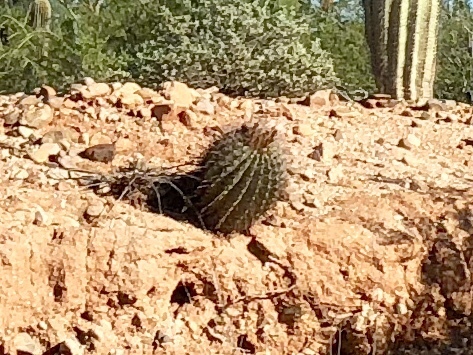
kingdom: Plantae
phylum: Tracheophyta
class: Magnoliopsida
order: Caryophyllales
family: Cactaceae
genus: Ferocactus
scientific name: Ferocactus wislizeni
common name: Candy barrel cactus
